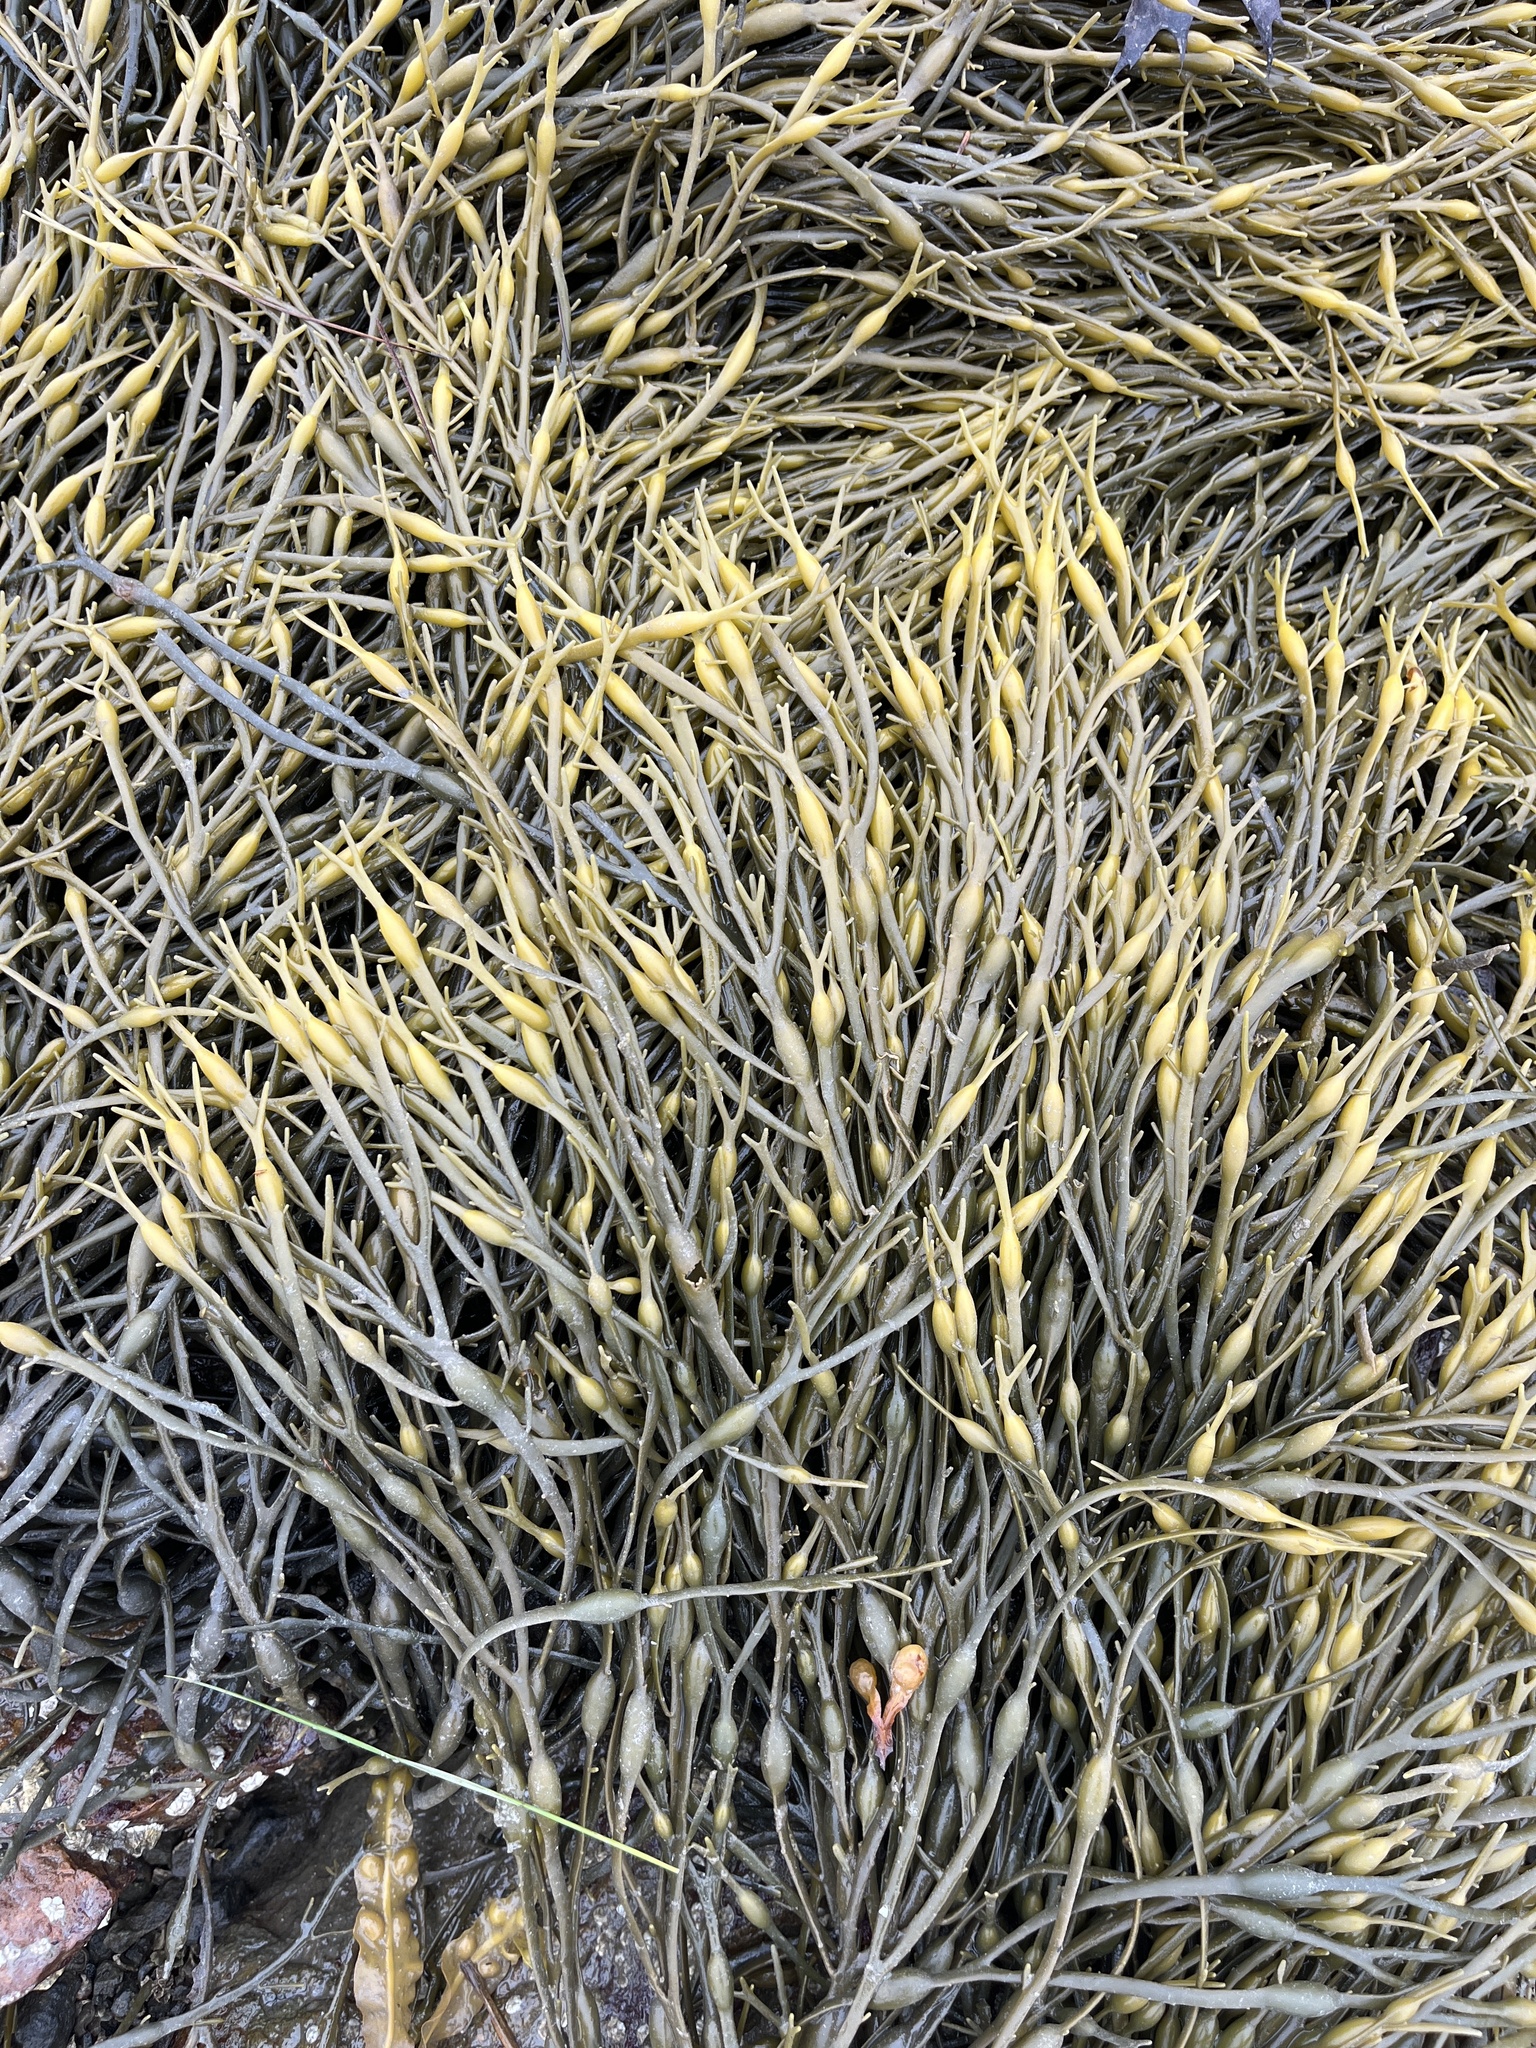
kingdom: Chromista
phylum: Ochrophyta
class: Phaeophyceae
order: Fucales
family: Fucaceae
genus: Ascophyllum
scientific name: Ascophyllum nodosum
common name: Knotted wrack
